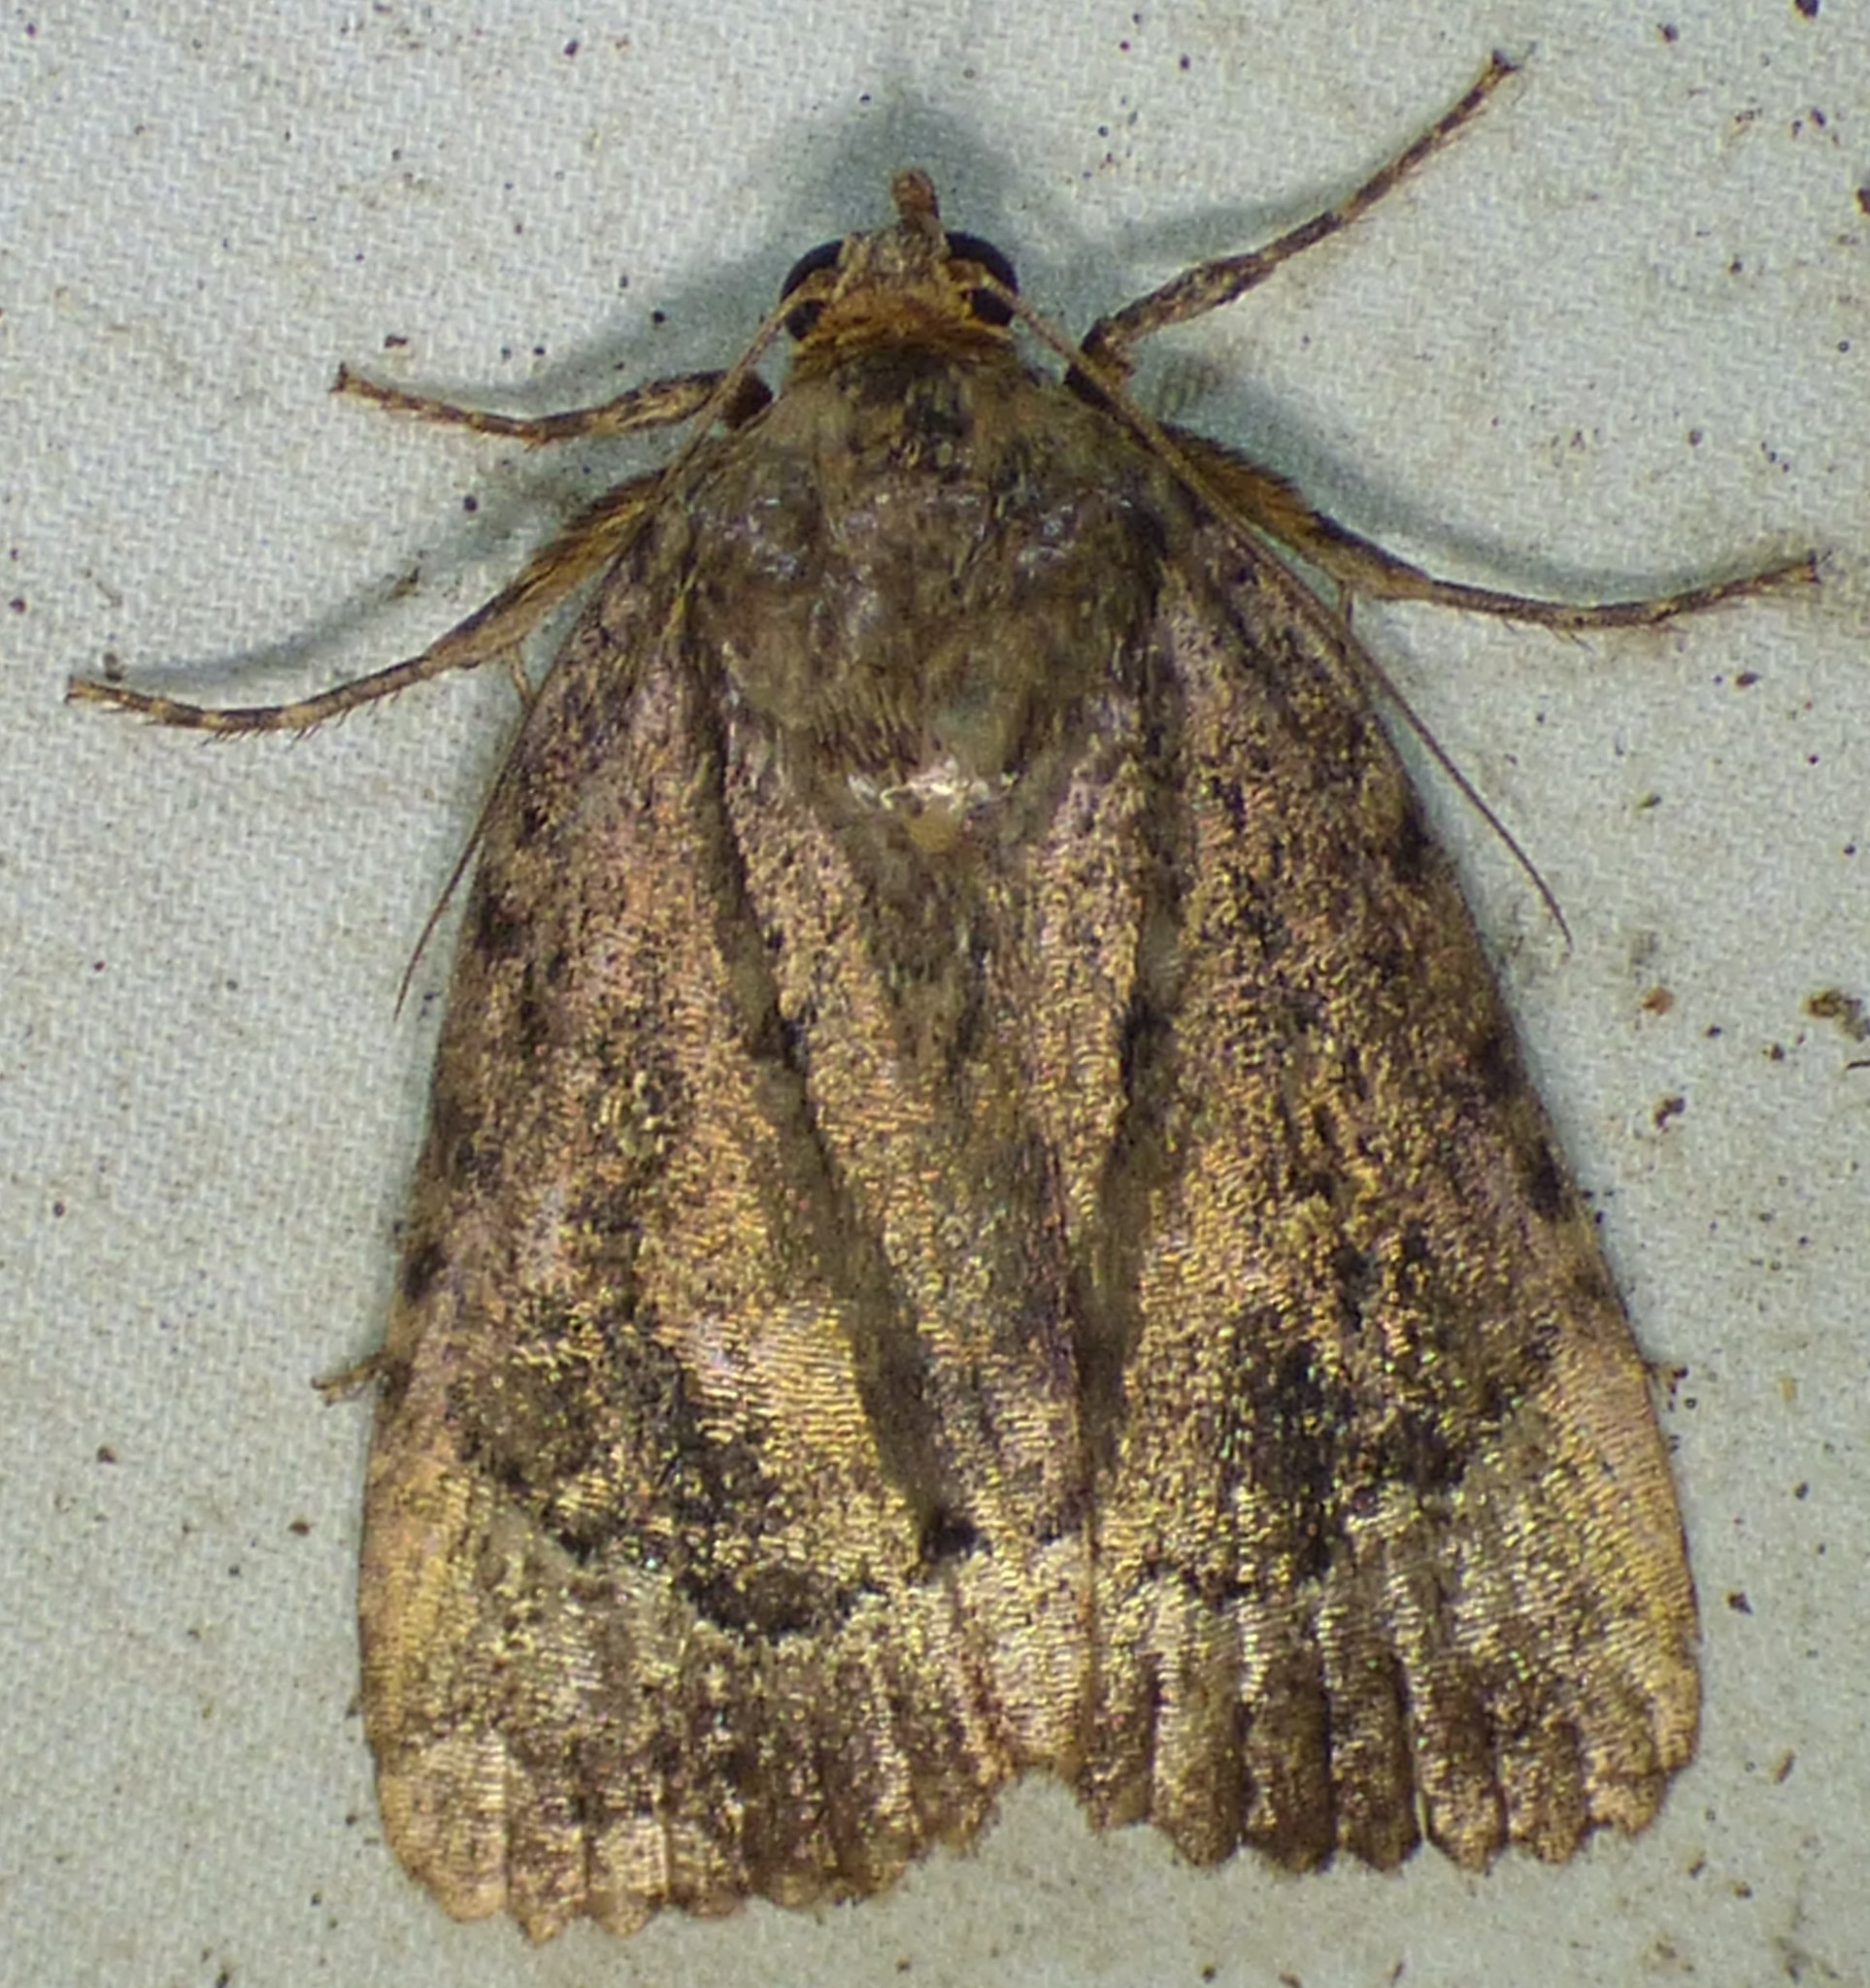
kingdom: Animalia
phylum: Arthropoda
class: Insecta
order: Lepidoptera
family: Noctuidae
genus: Amphipyra
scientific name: Amphipyra pyramidoides
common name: American copper underwing
